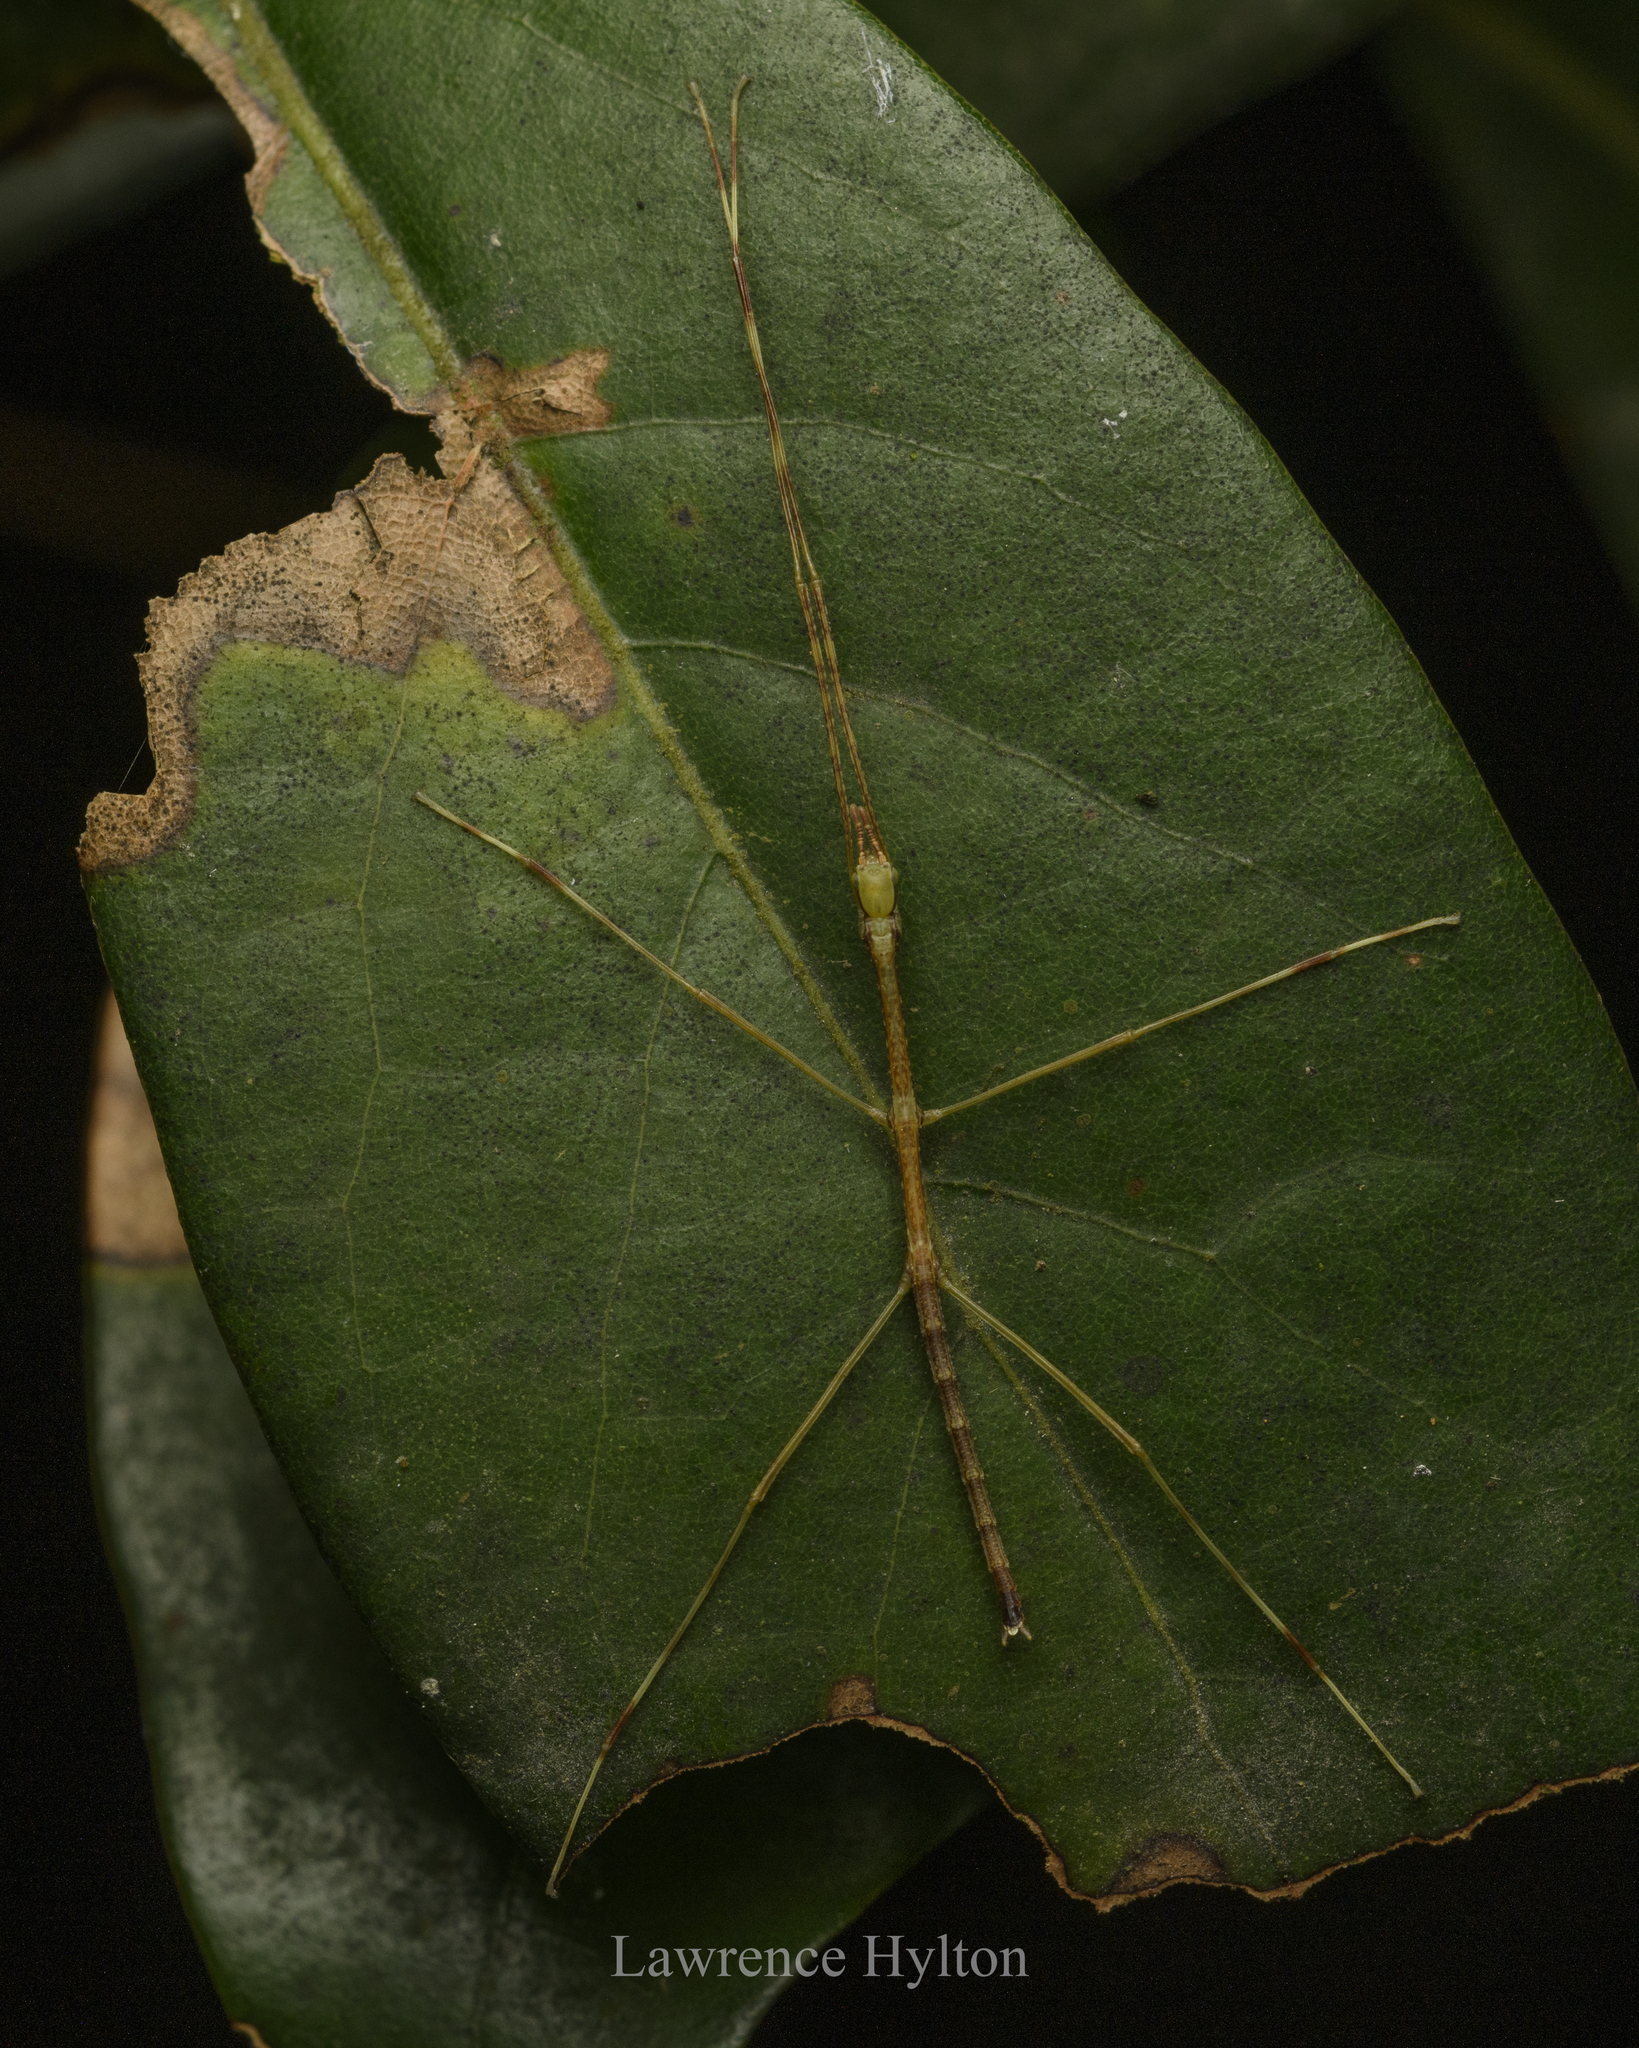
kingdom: Animalia
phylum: Arthropoda
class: Insecta
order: Phasmida
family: Phasmatidae
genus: Ramulus
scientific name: Ramulus rotundus
